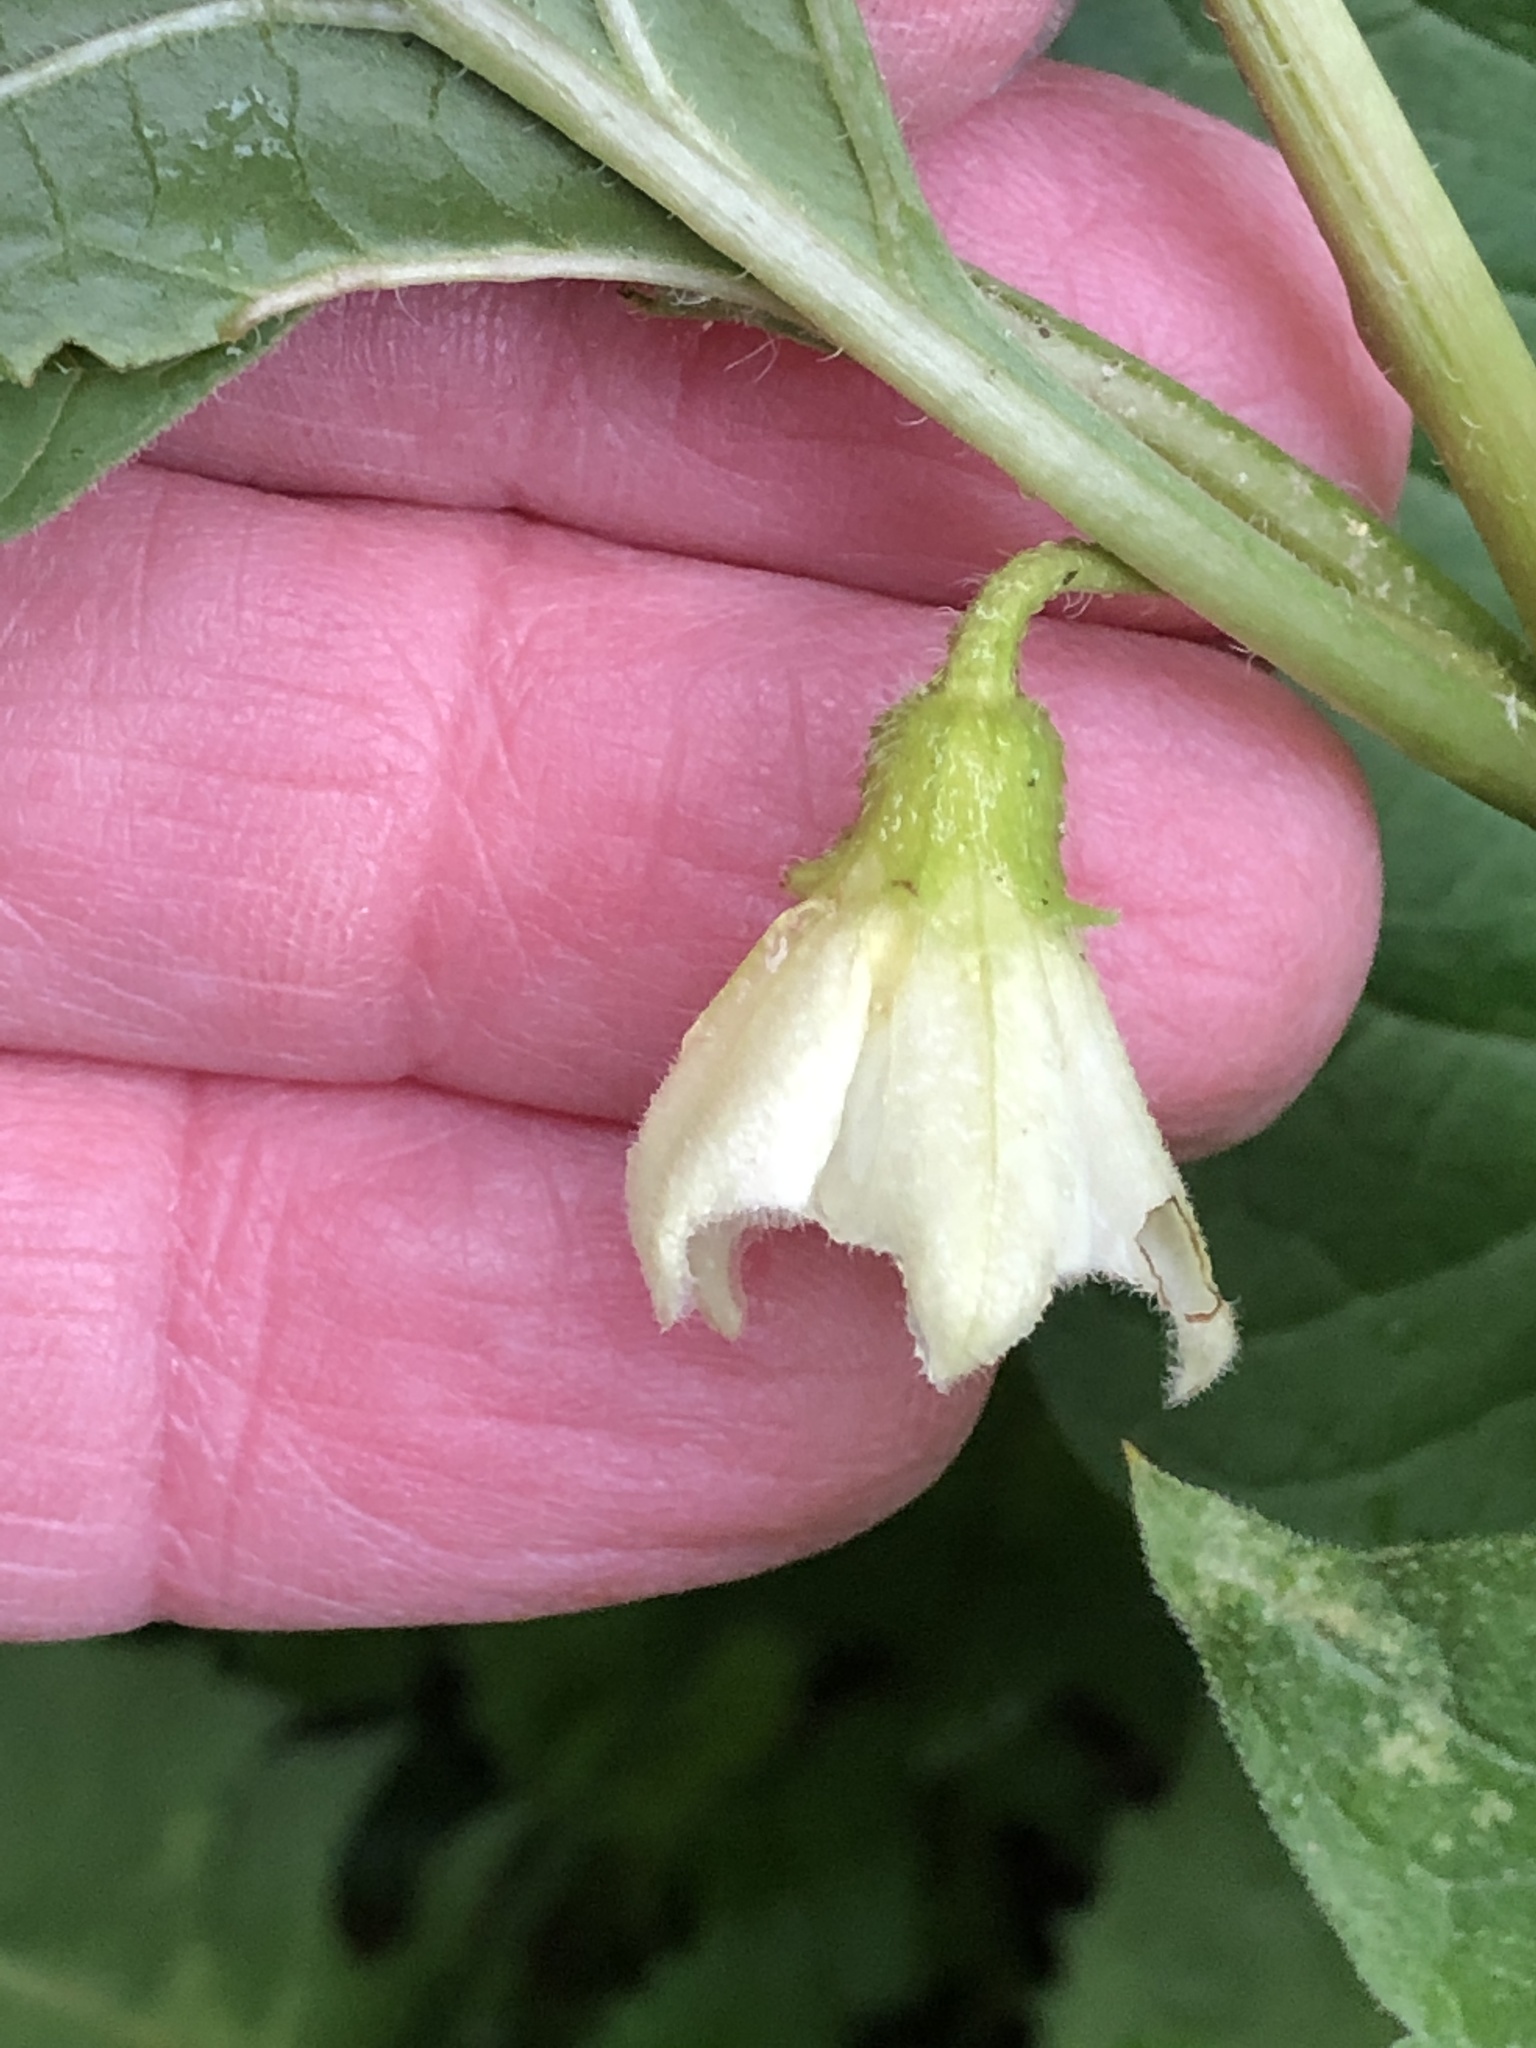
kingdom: Plantae
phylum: Tracheophyta
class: Magnoliopsida
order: Solanales
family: Solanaceae
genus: Alkekengi
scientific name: Alkekengi officinarum
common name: Japanese-lantern
